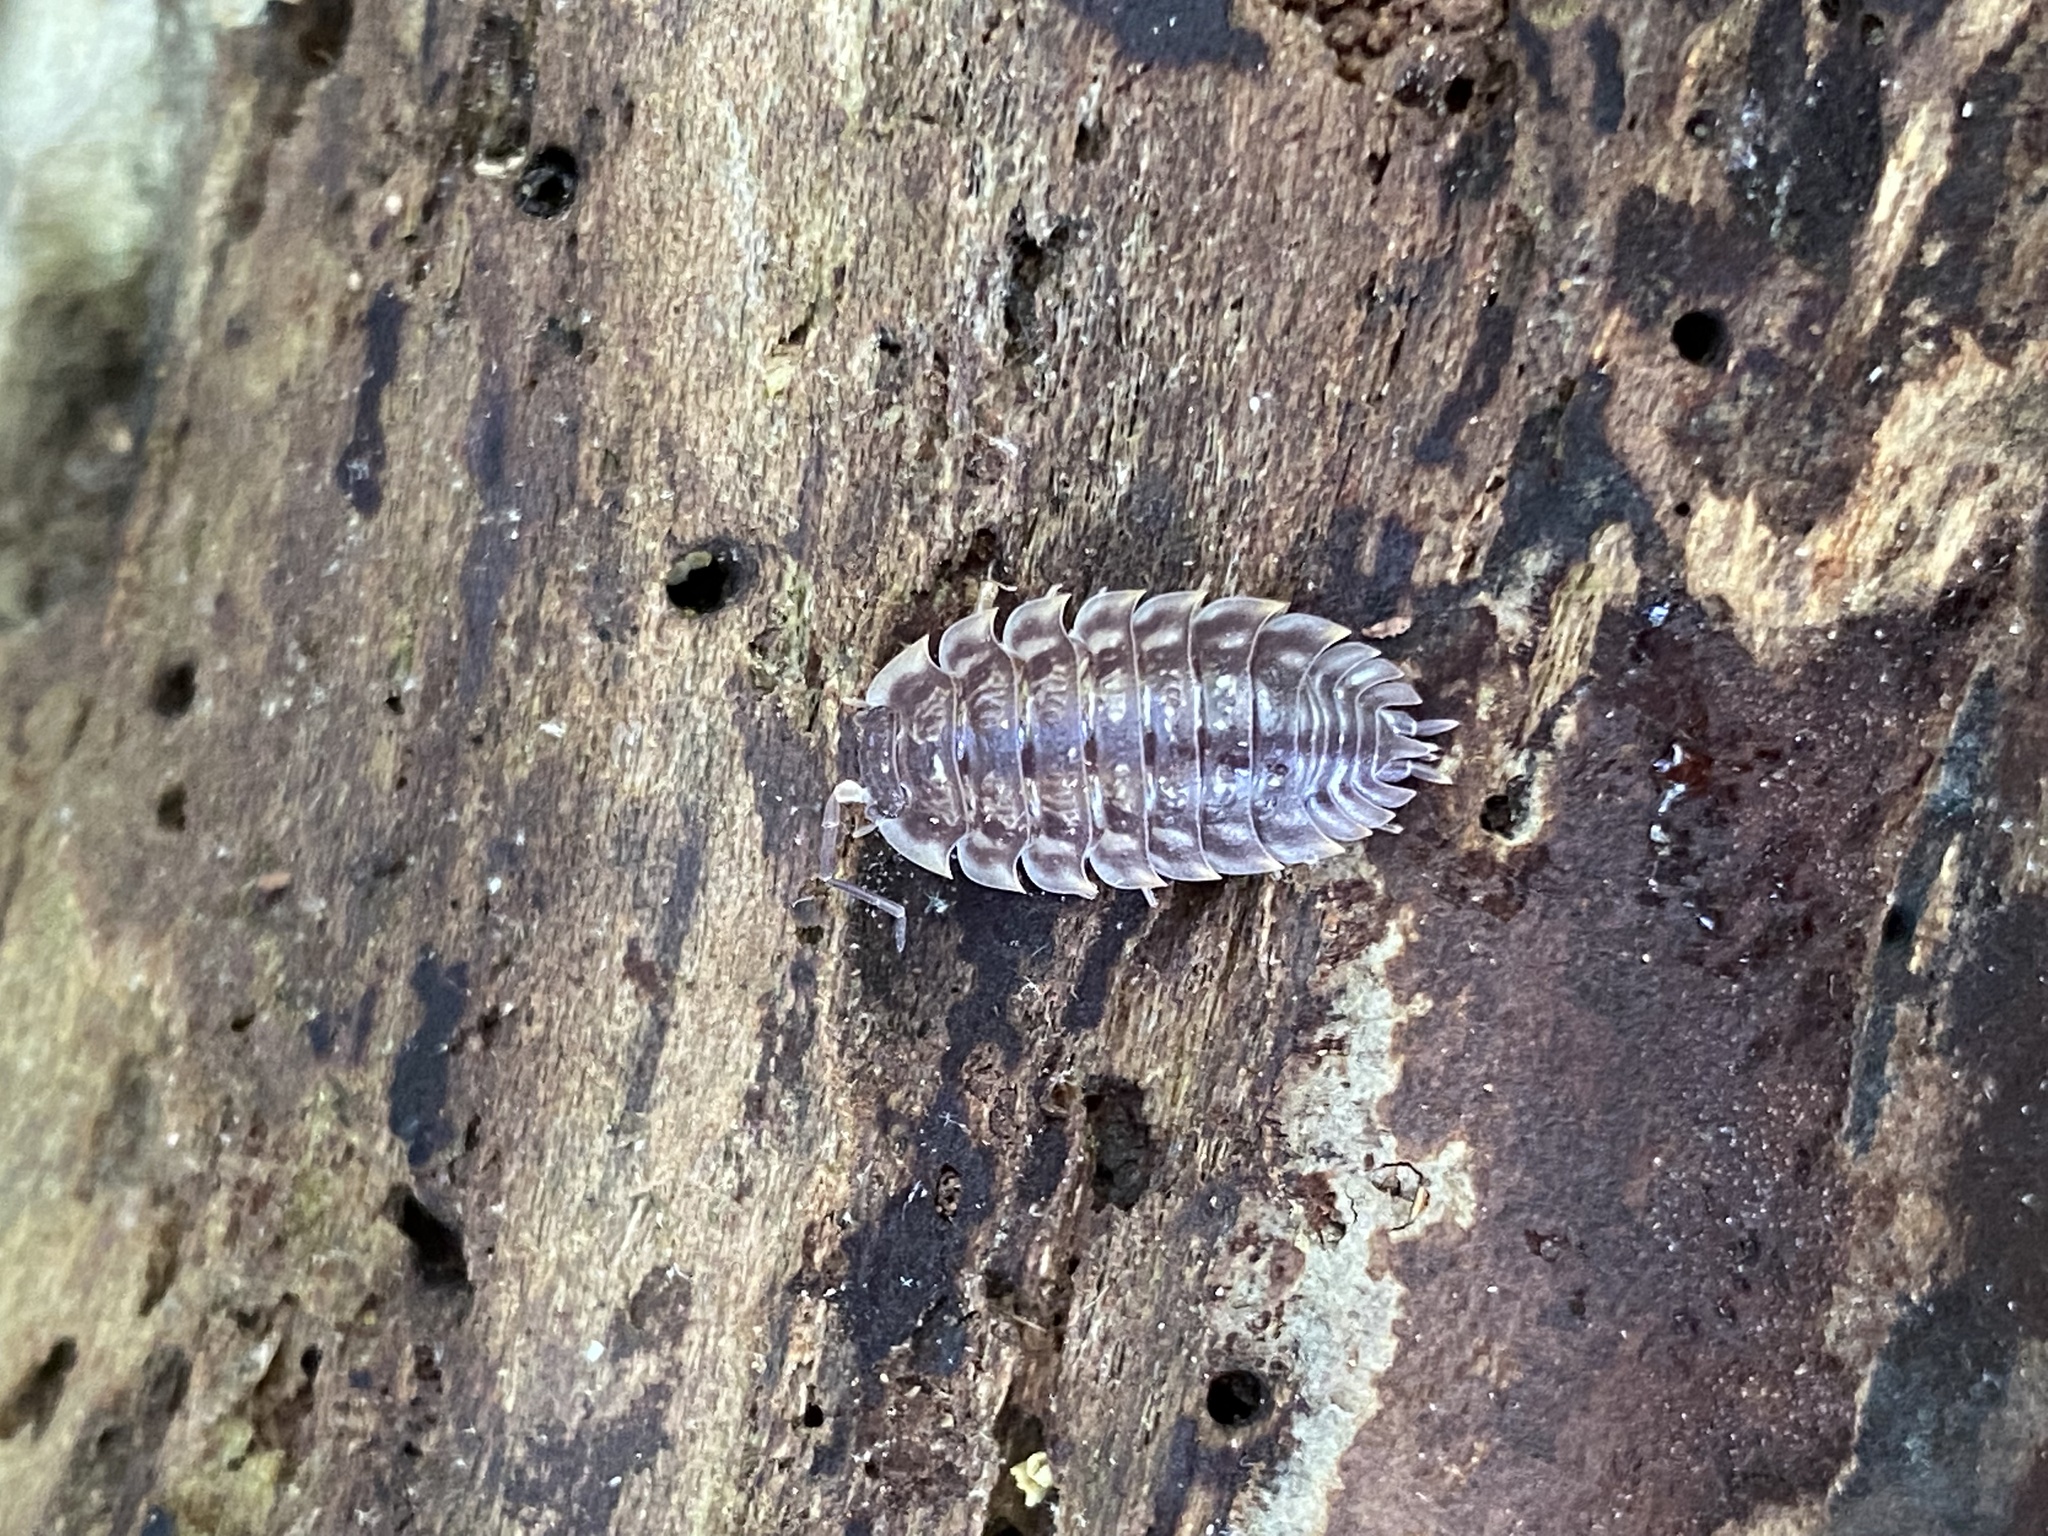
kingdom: Animalia
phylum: Arthropoda
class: Malacostraca
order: Isopoda
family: Oniscidae
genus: Oniscus
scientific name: Oniscus asellus
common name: Common shiny woodlouse
